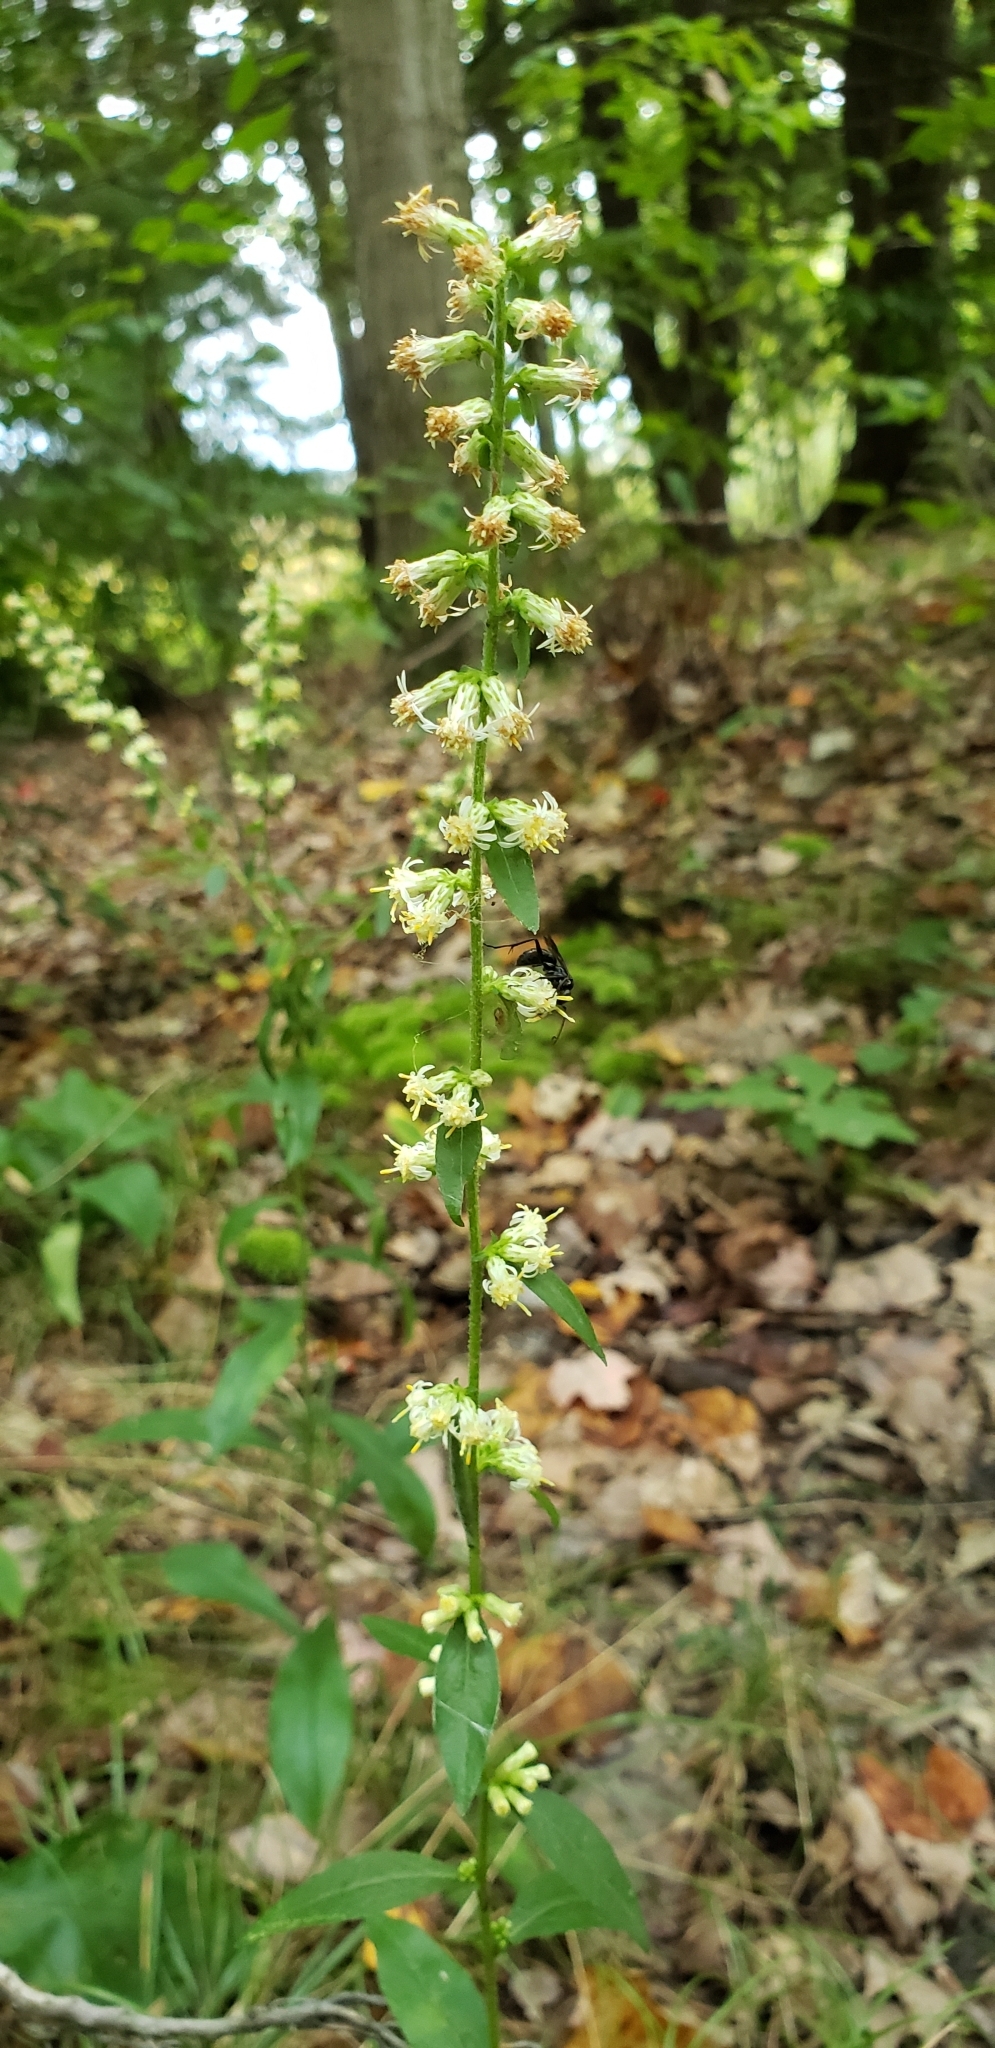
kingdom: Plantae
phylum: Tracheophyta
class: Magnoliopsida
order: Asterales
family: Asteraceae
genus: Solidago
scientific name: Solidago bicolor
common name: Silverrod
